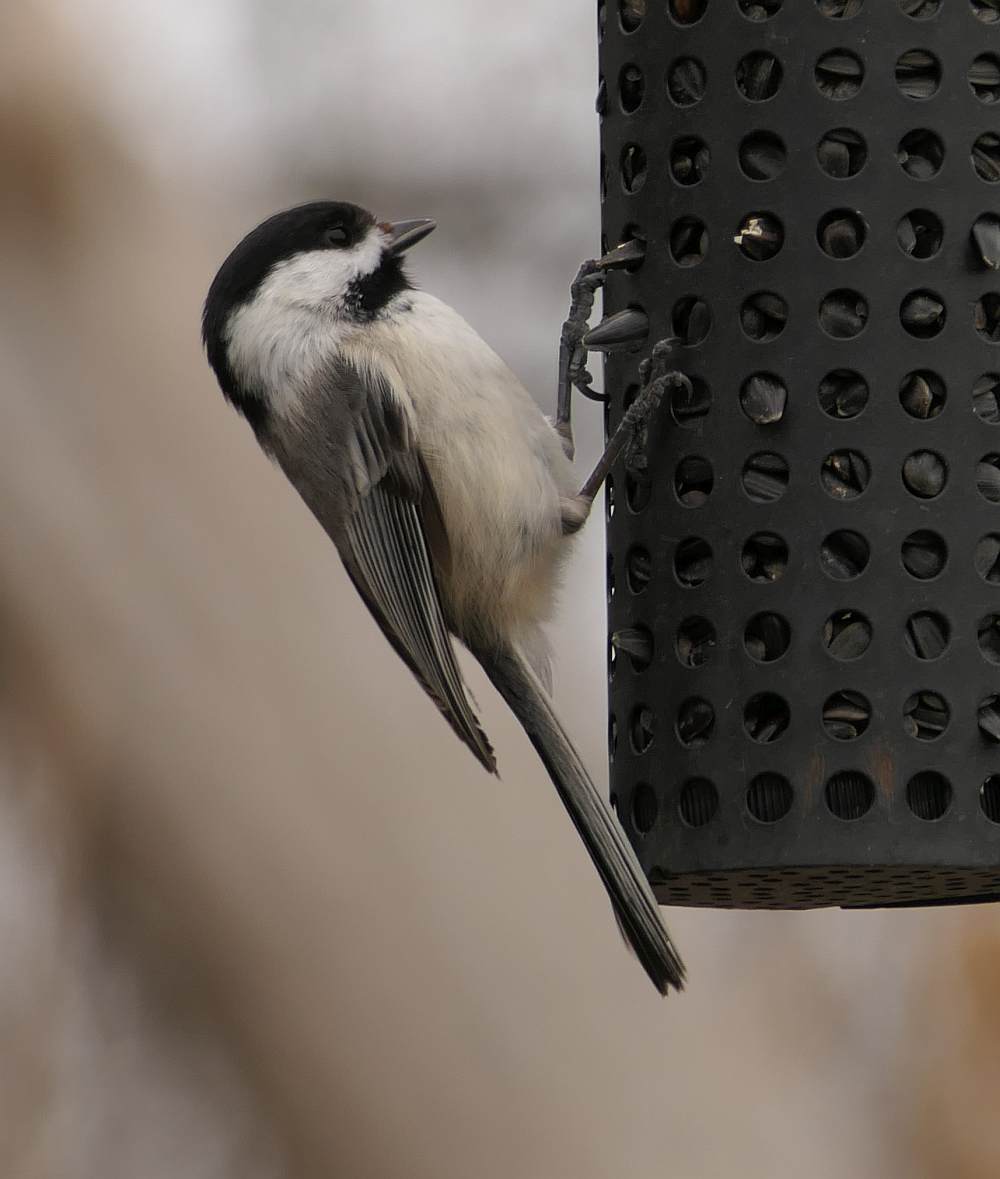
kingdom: Animalia
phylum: Chordata
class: Aves
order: Passeriformes
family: Paridae
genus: Poecile
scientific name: Poecile atricapillus
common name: Black-capped chickadee
